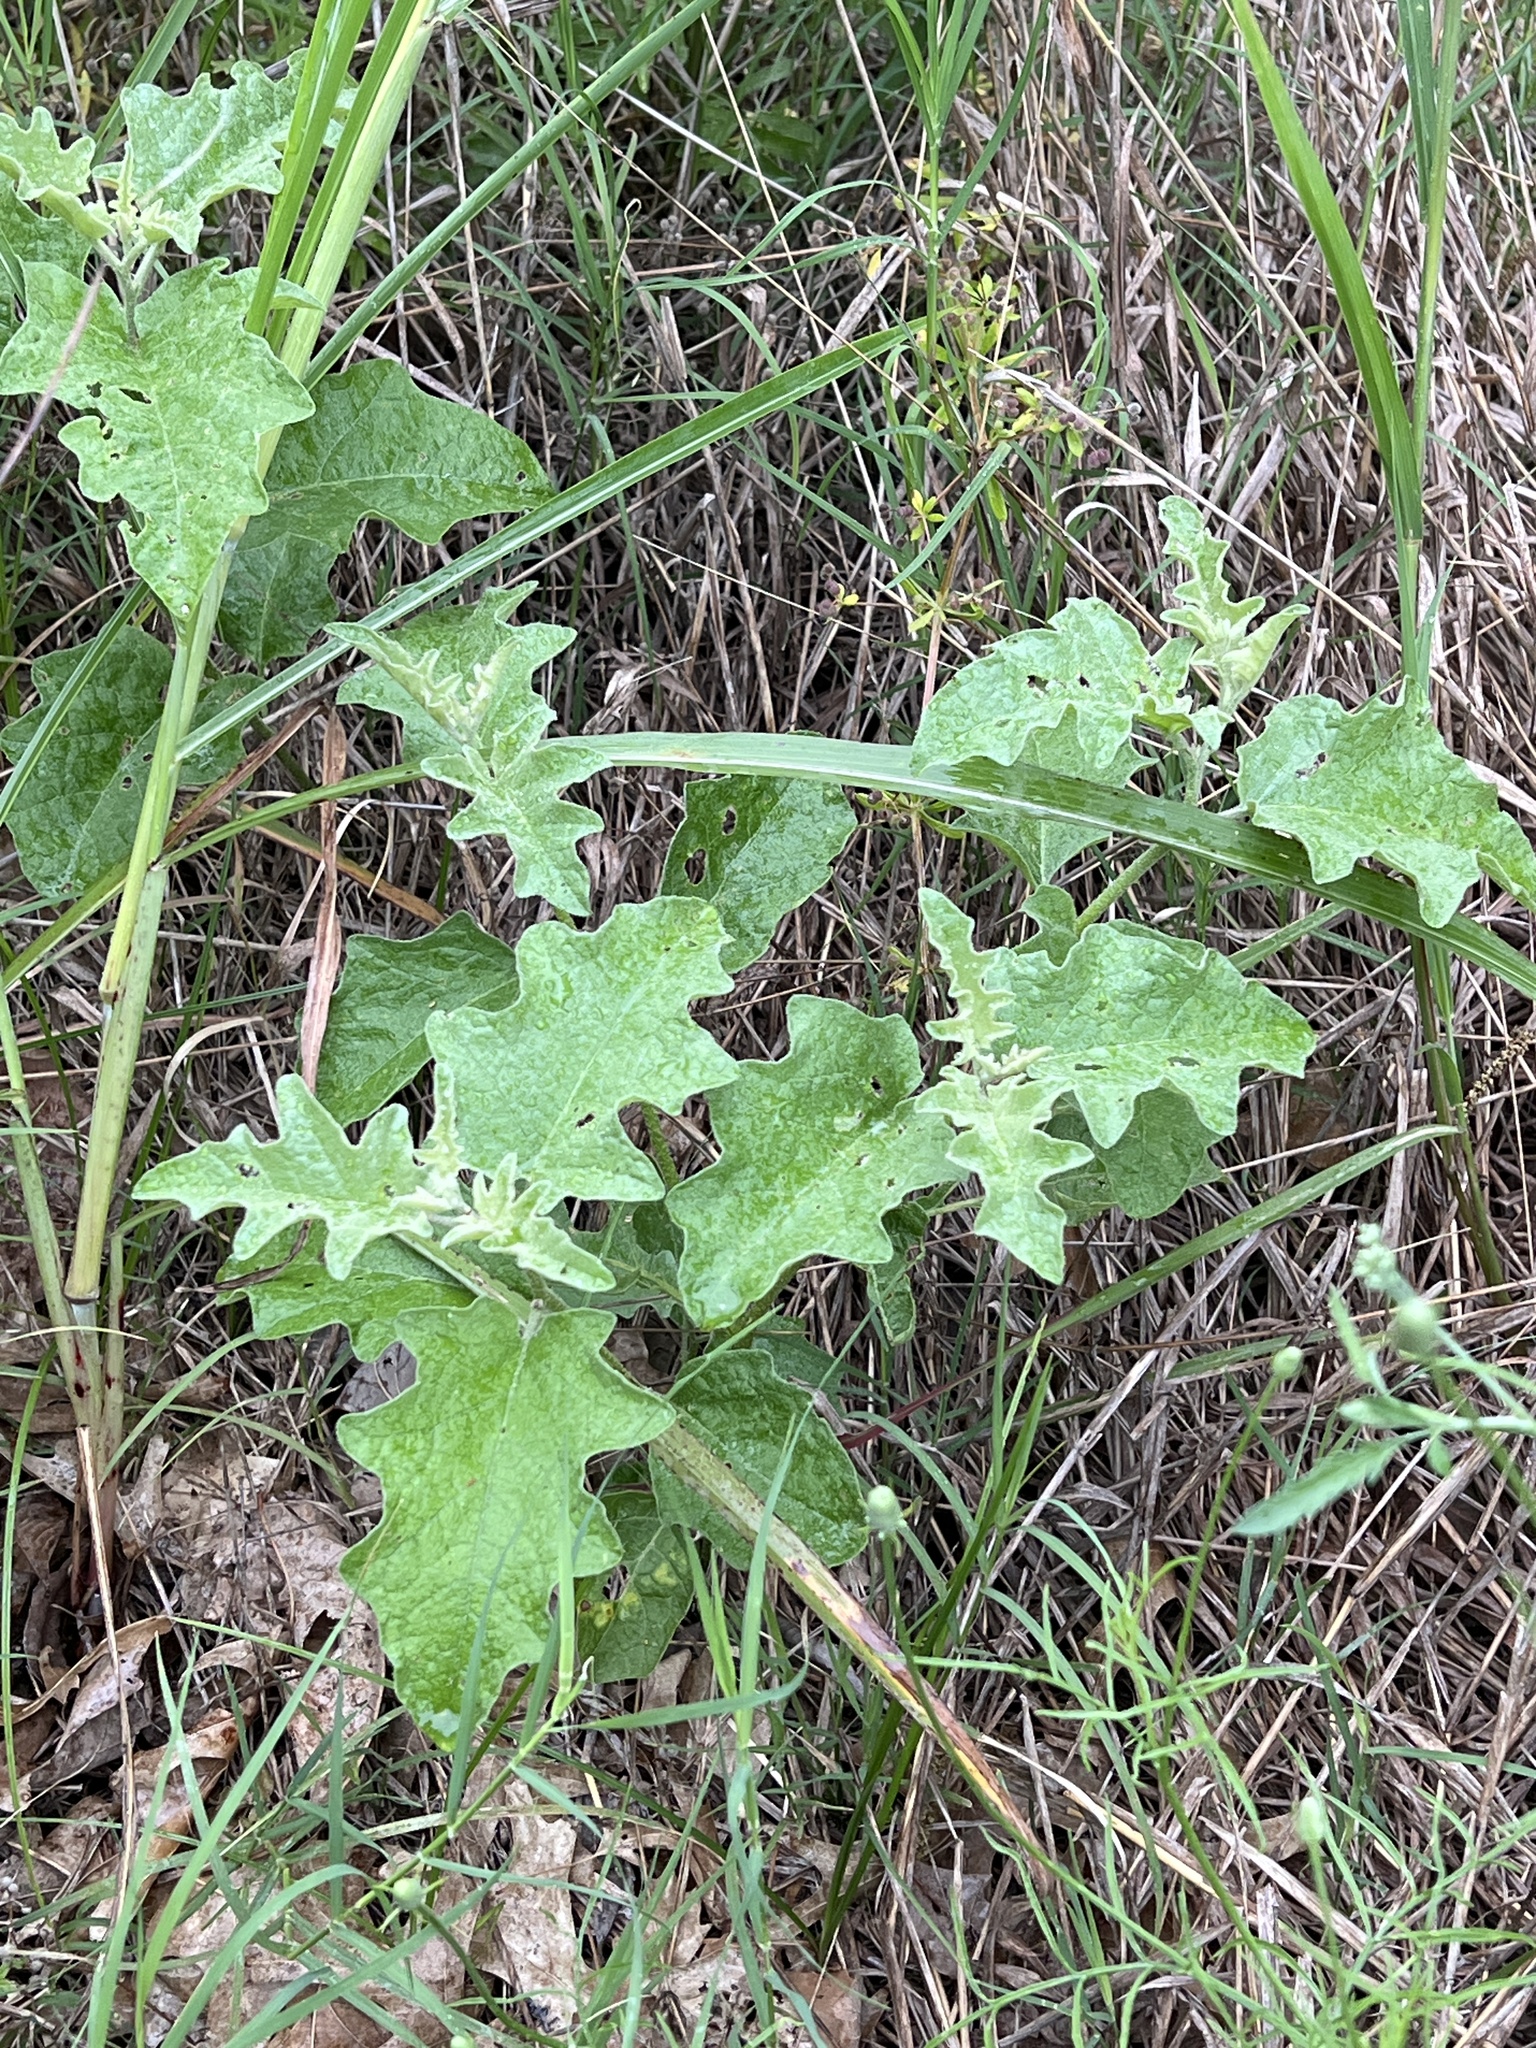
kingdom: Plantae
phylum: Tracheophyta
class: Magnoliopsida
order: Solanales
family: Solanaceae
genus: Solanum
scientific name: Solanum dimidiatum
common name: Carolina horse-nettle
